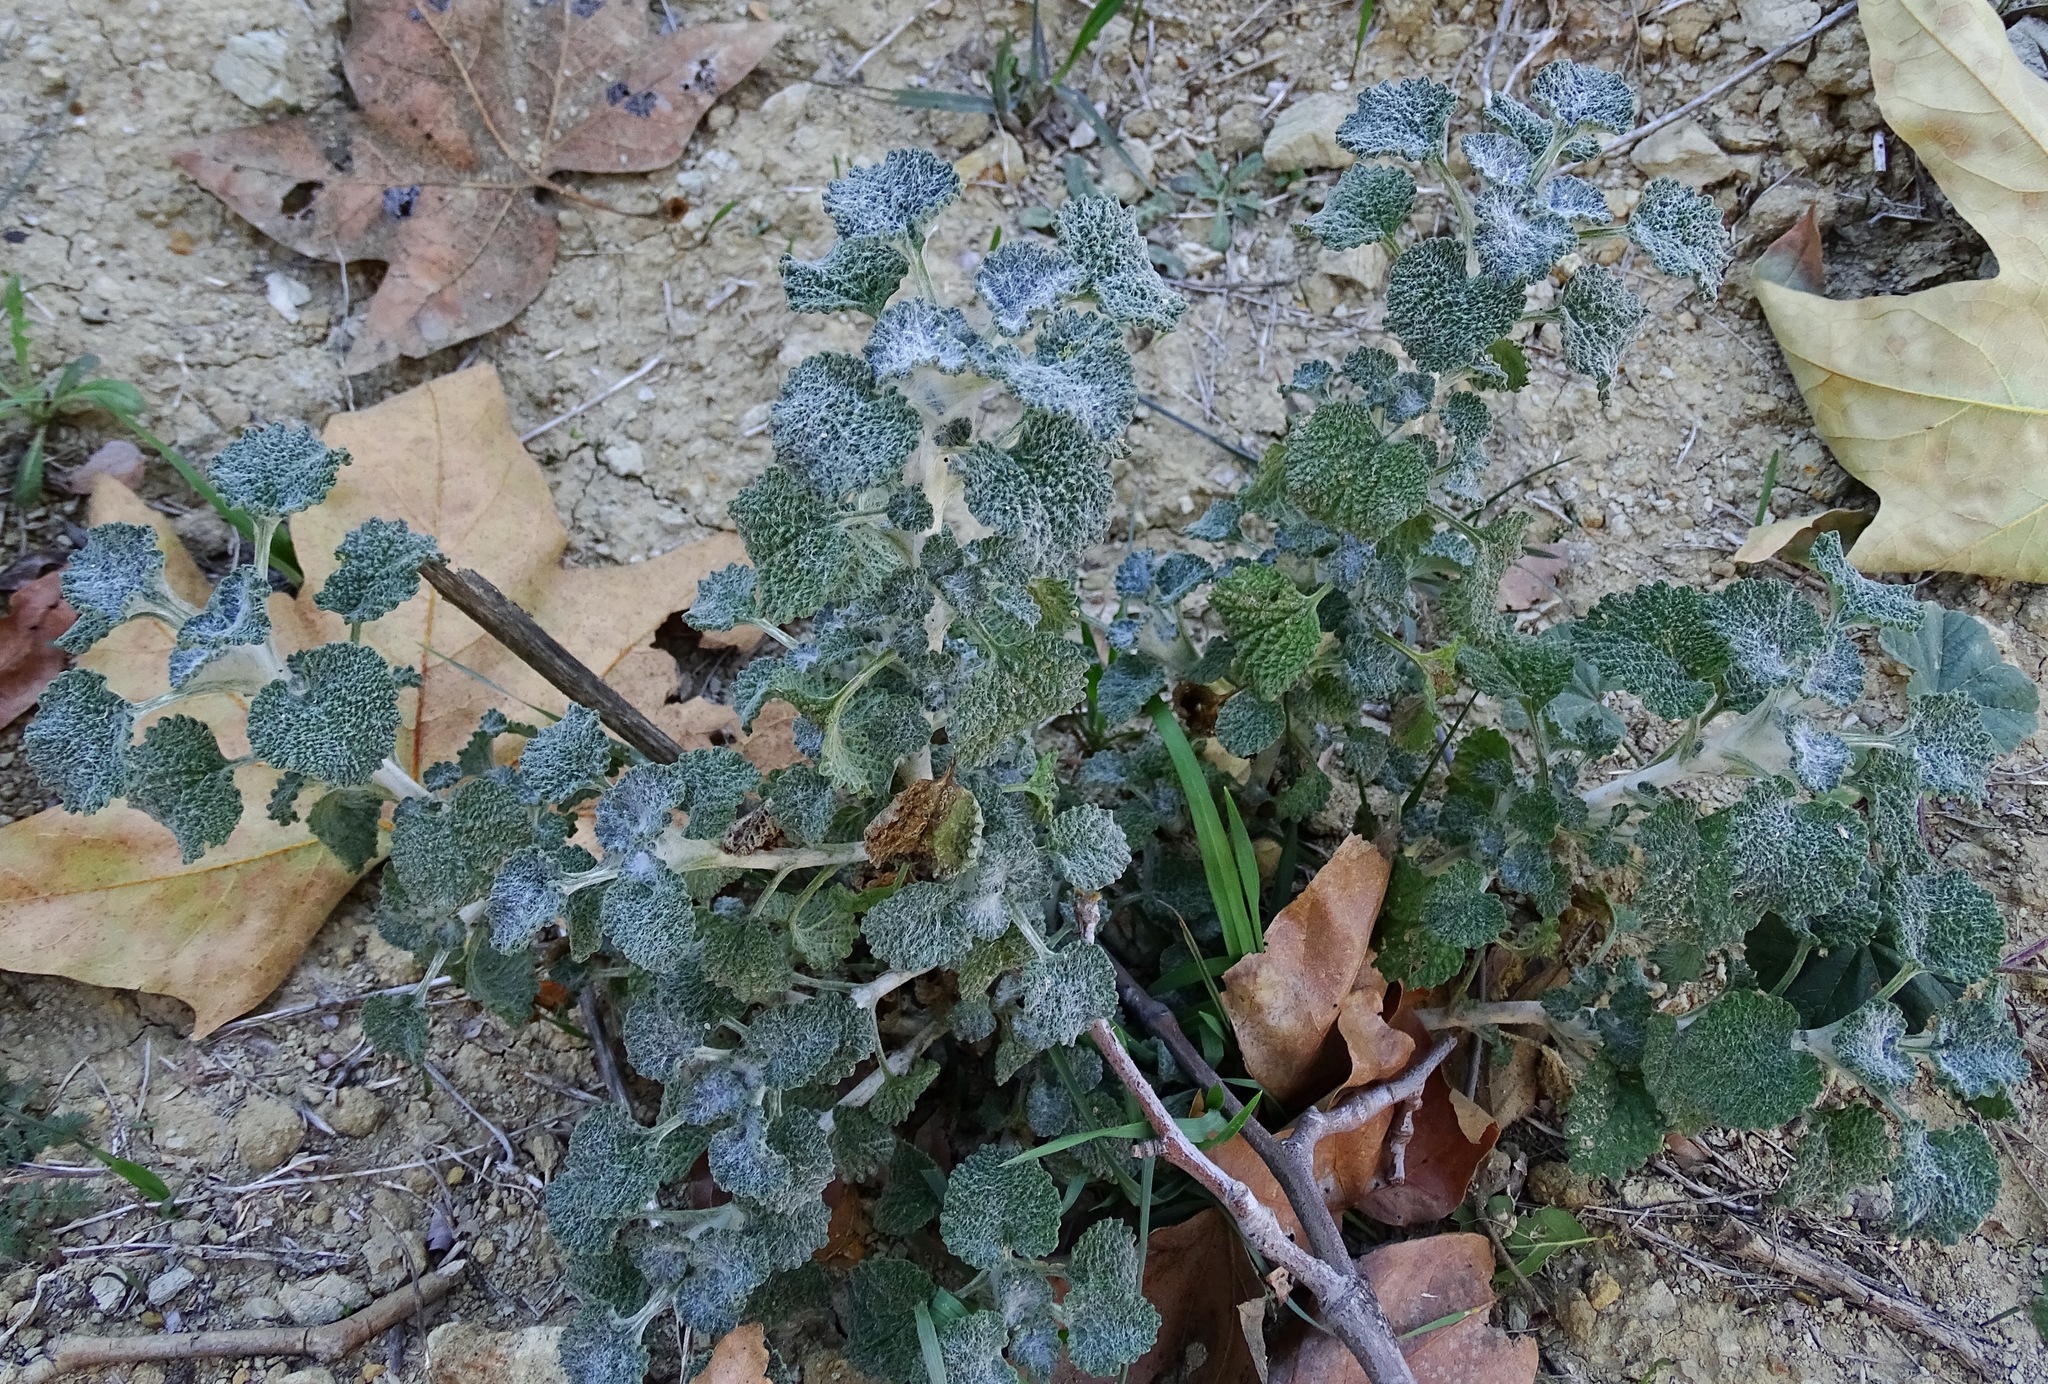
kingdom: Plantae
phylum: Tracheophyta
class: Magnoliopsida
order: Lamiales
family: Lamiaceae
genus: Marrubium
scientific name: Marrubium vulgare
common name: Horehound
